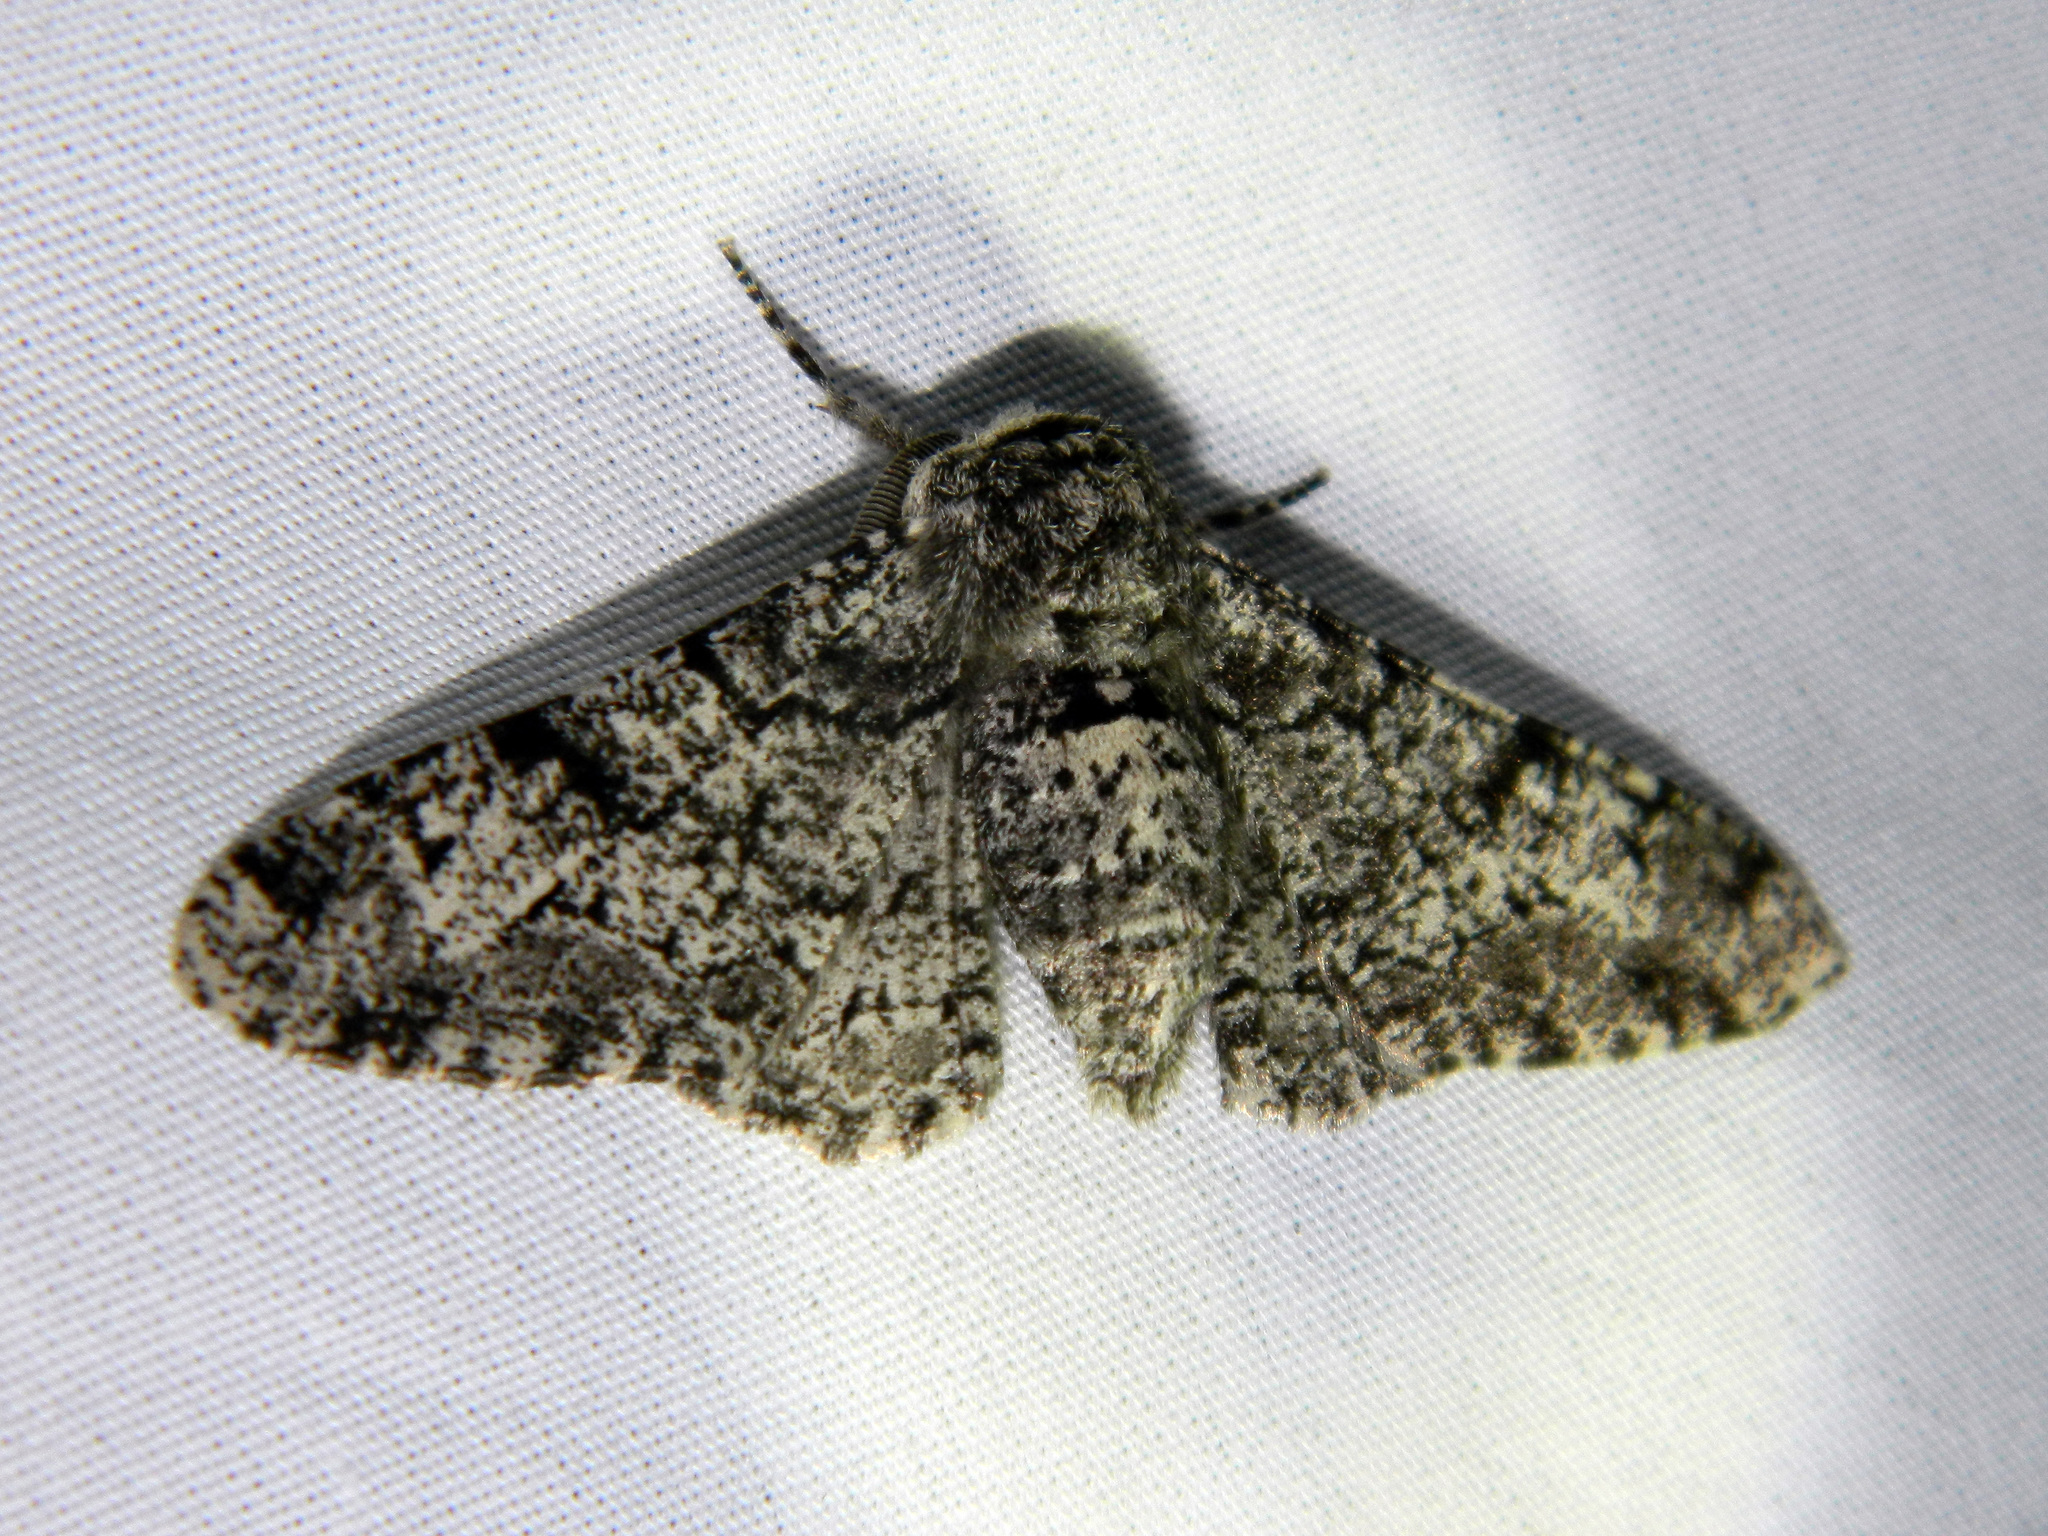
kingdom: Animalia
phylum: Arthropoda
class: Insecta
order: Lepidoptera
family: Geometridae
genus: Biston
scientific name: Biston betularia
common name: Peppered moth
